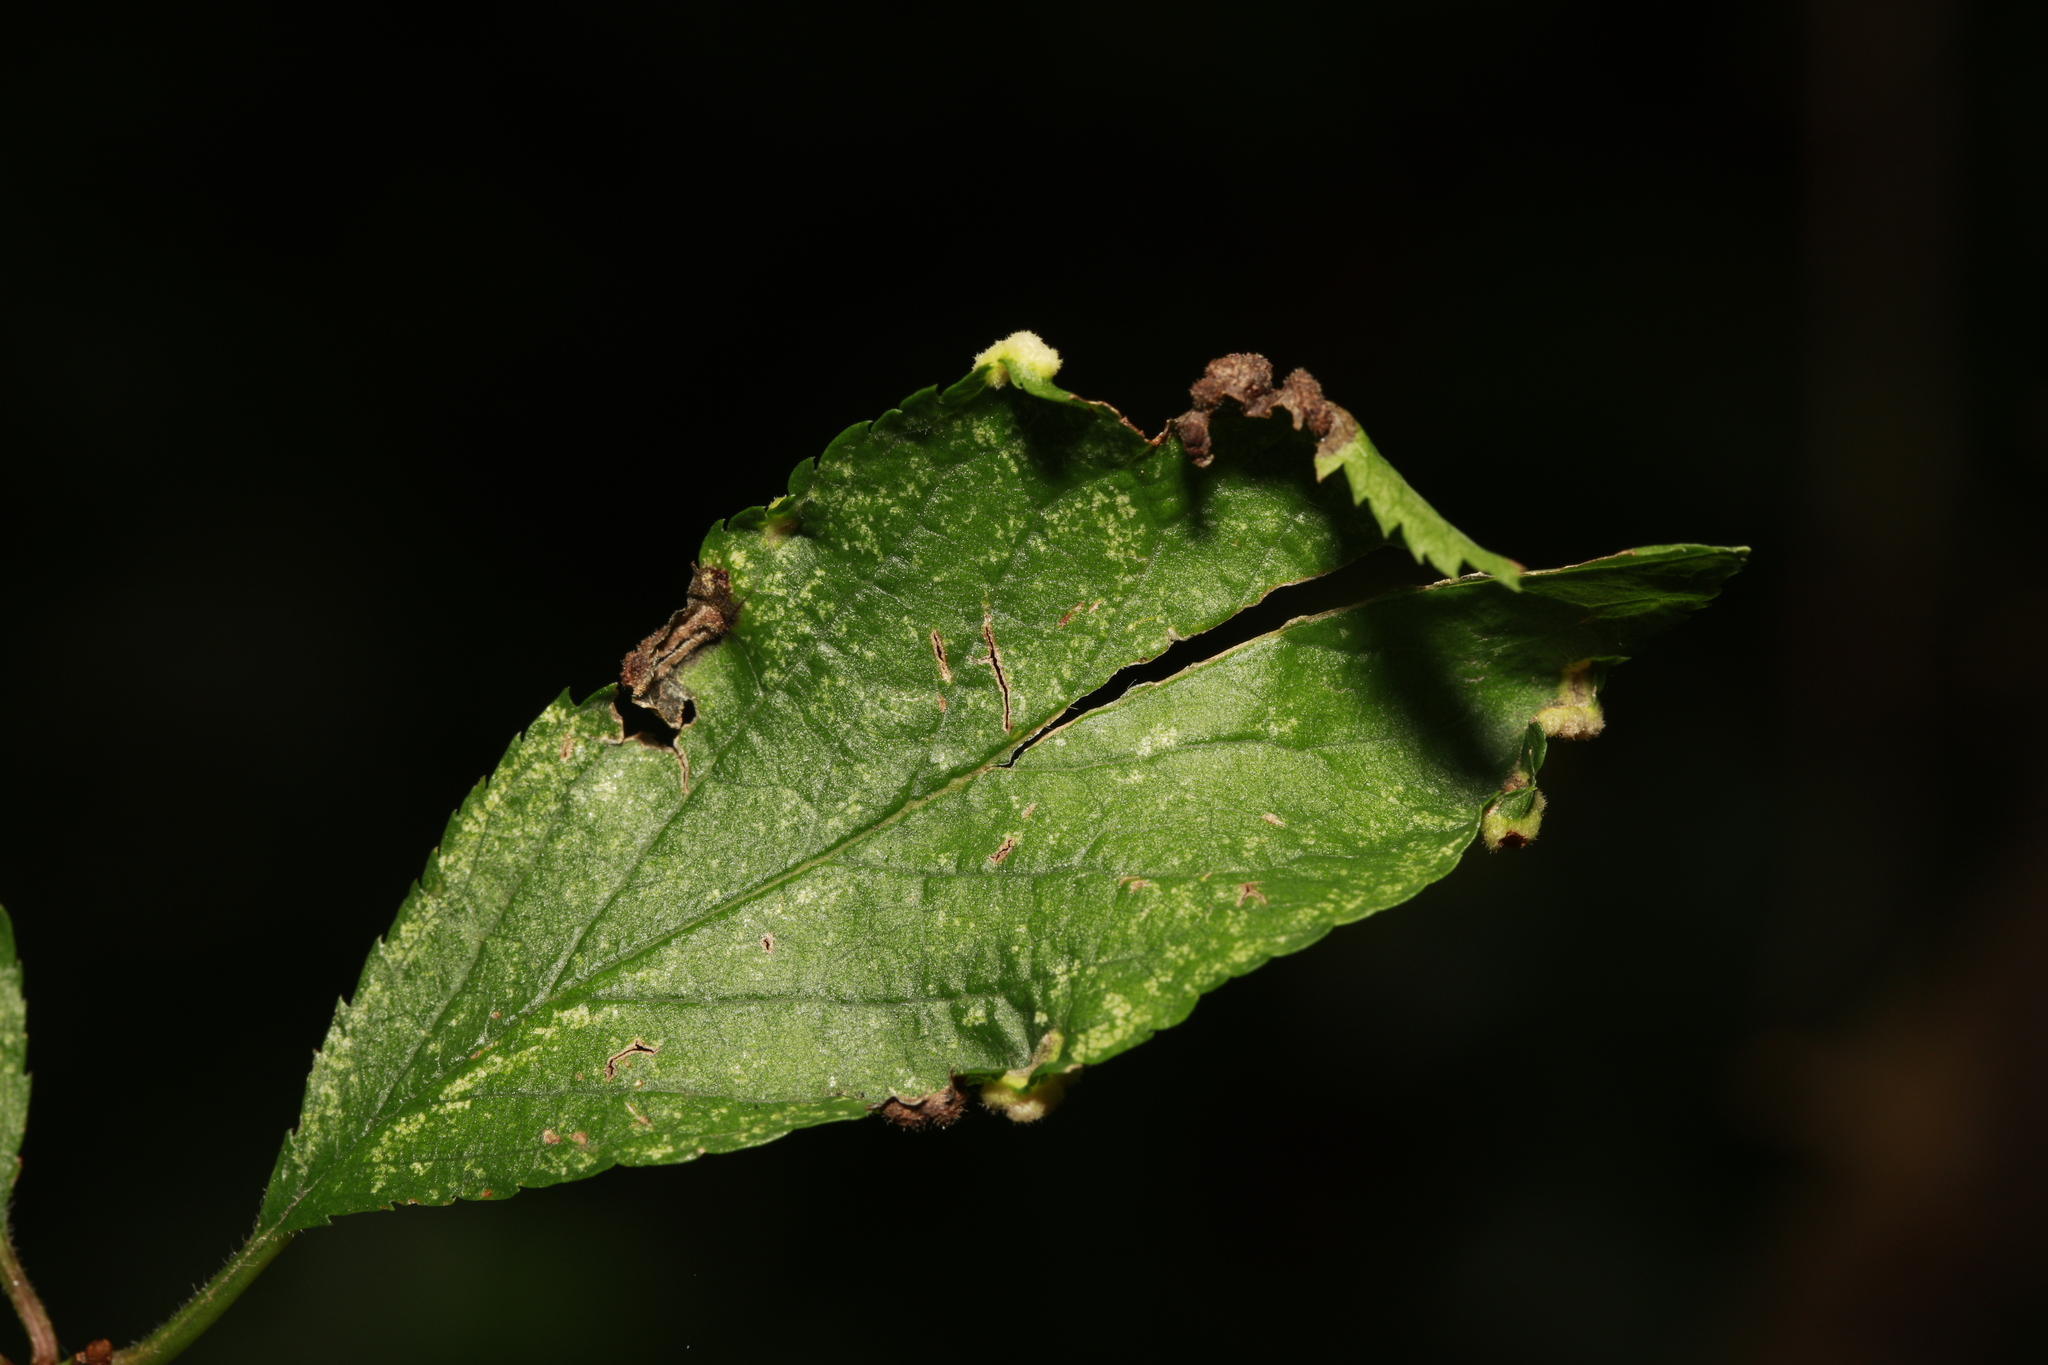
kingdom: Animalia
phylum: Arthropoda
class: Arachnida
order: Trombidiformes
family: Eriophyidae
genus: Eriophyes
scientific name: Eriophyes similis
